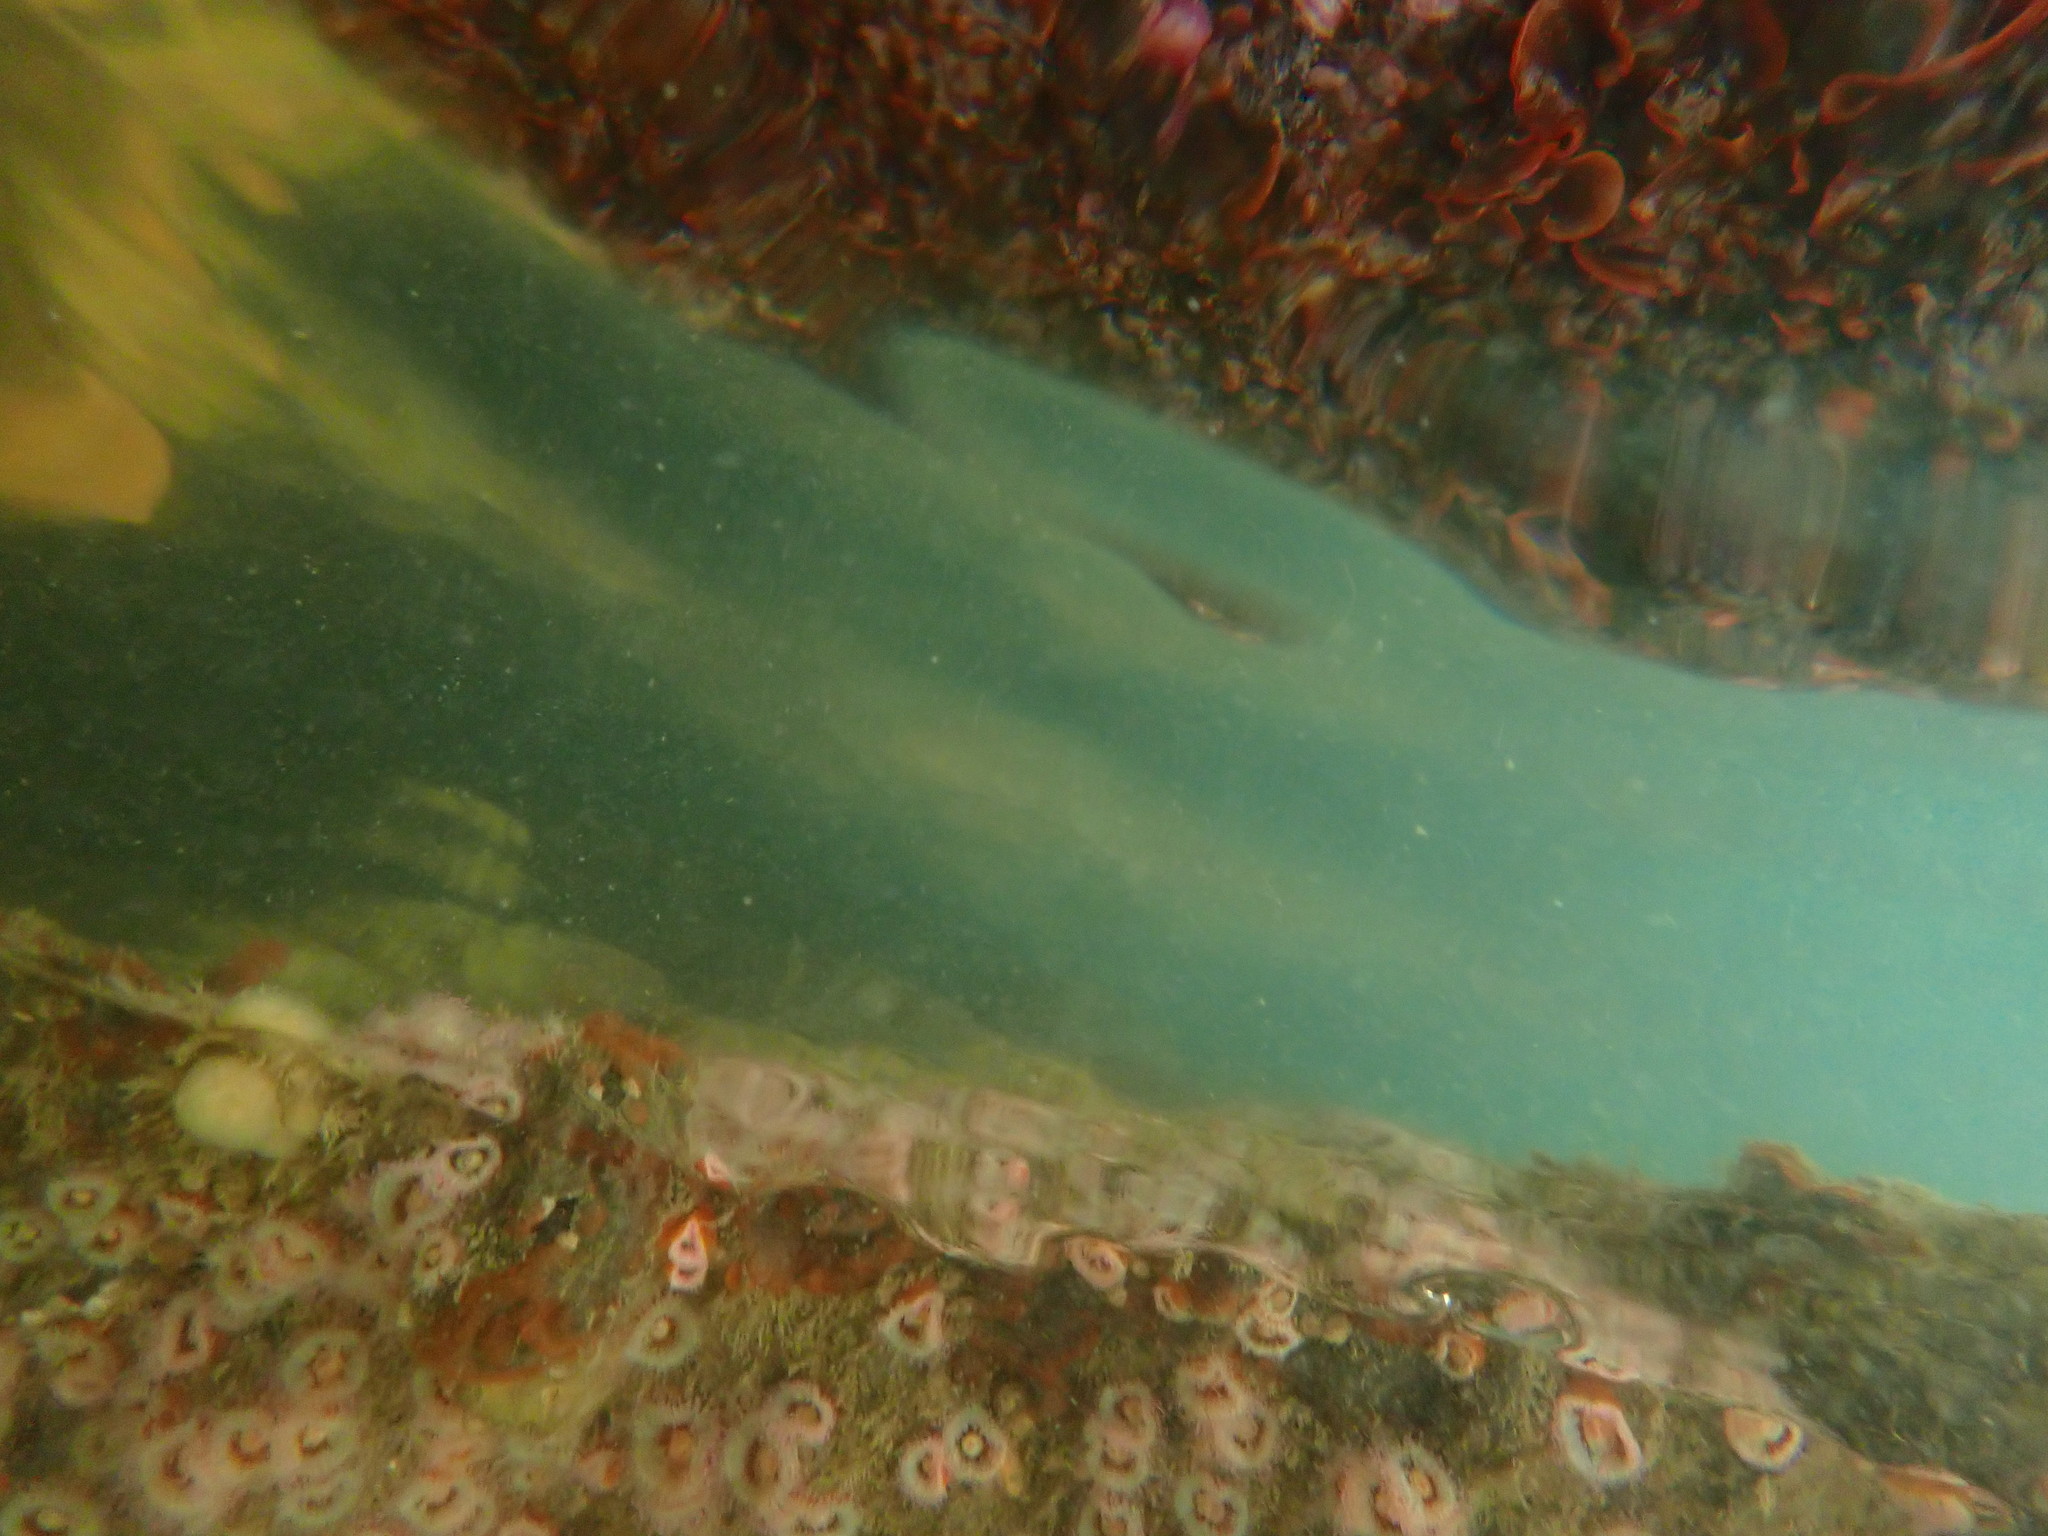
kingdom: Animalia
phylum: Bryozoa
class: Gymnolaemata
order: Cheilostomatida
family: Watersiporidae
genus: Watersipora
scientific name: Watersipora subatra
